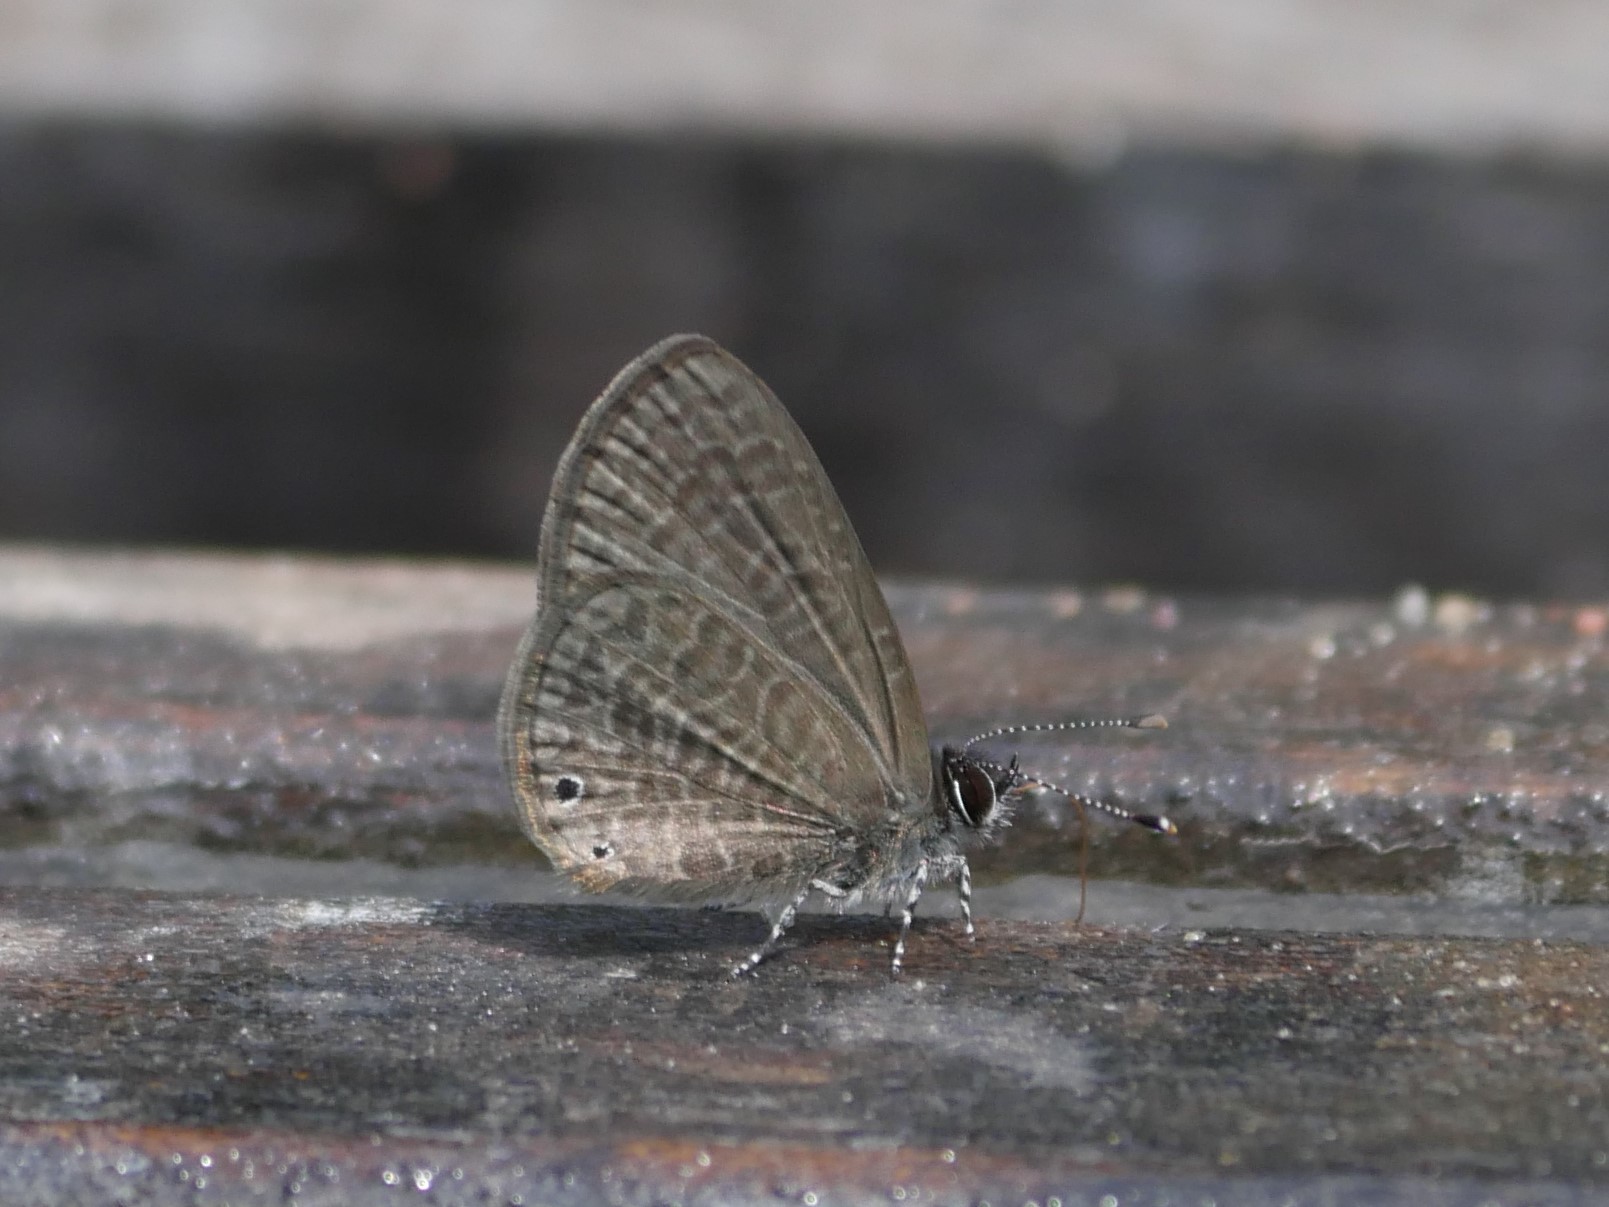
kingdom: Animalia
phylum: Arthropoda
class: Insecta
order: Lepidoptera
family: Lycaenidae
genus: Pseudonacaduba
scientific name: Pseudonacaduba sichela
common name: African line blue
